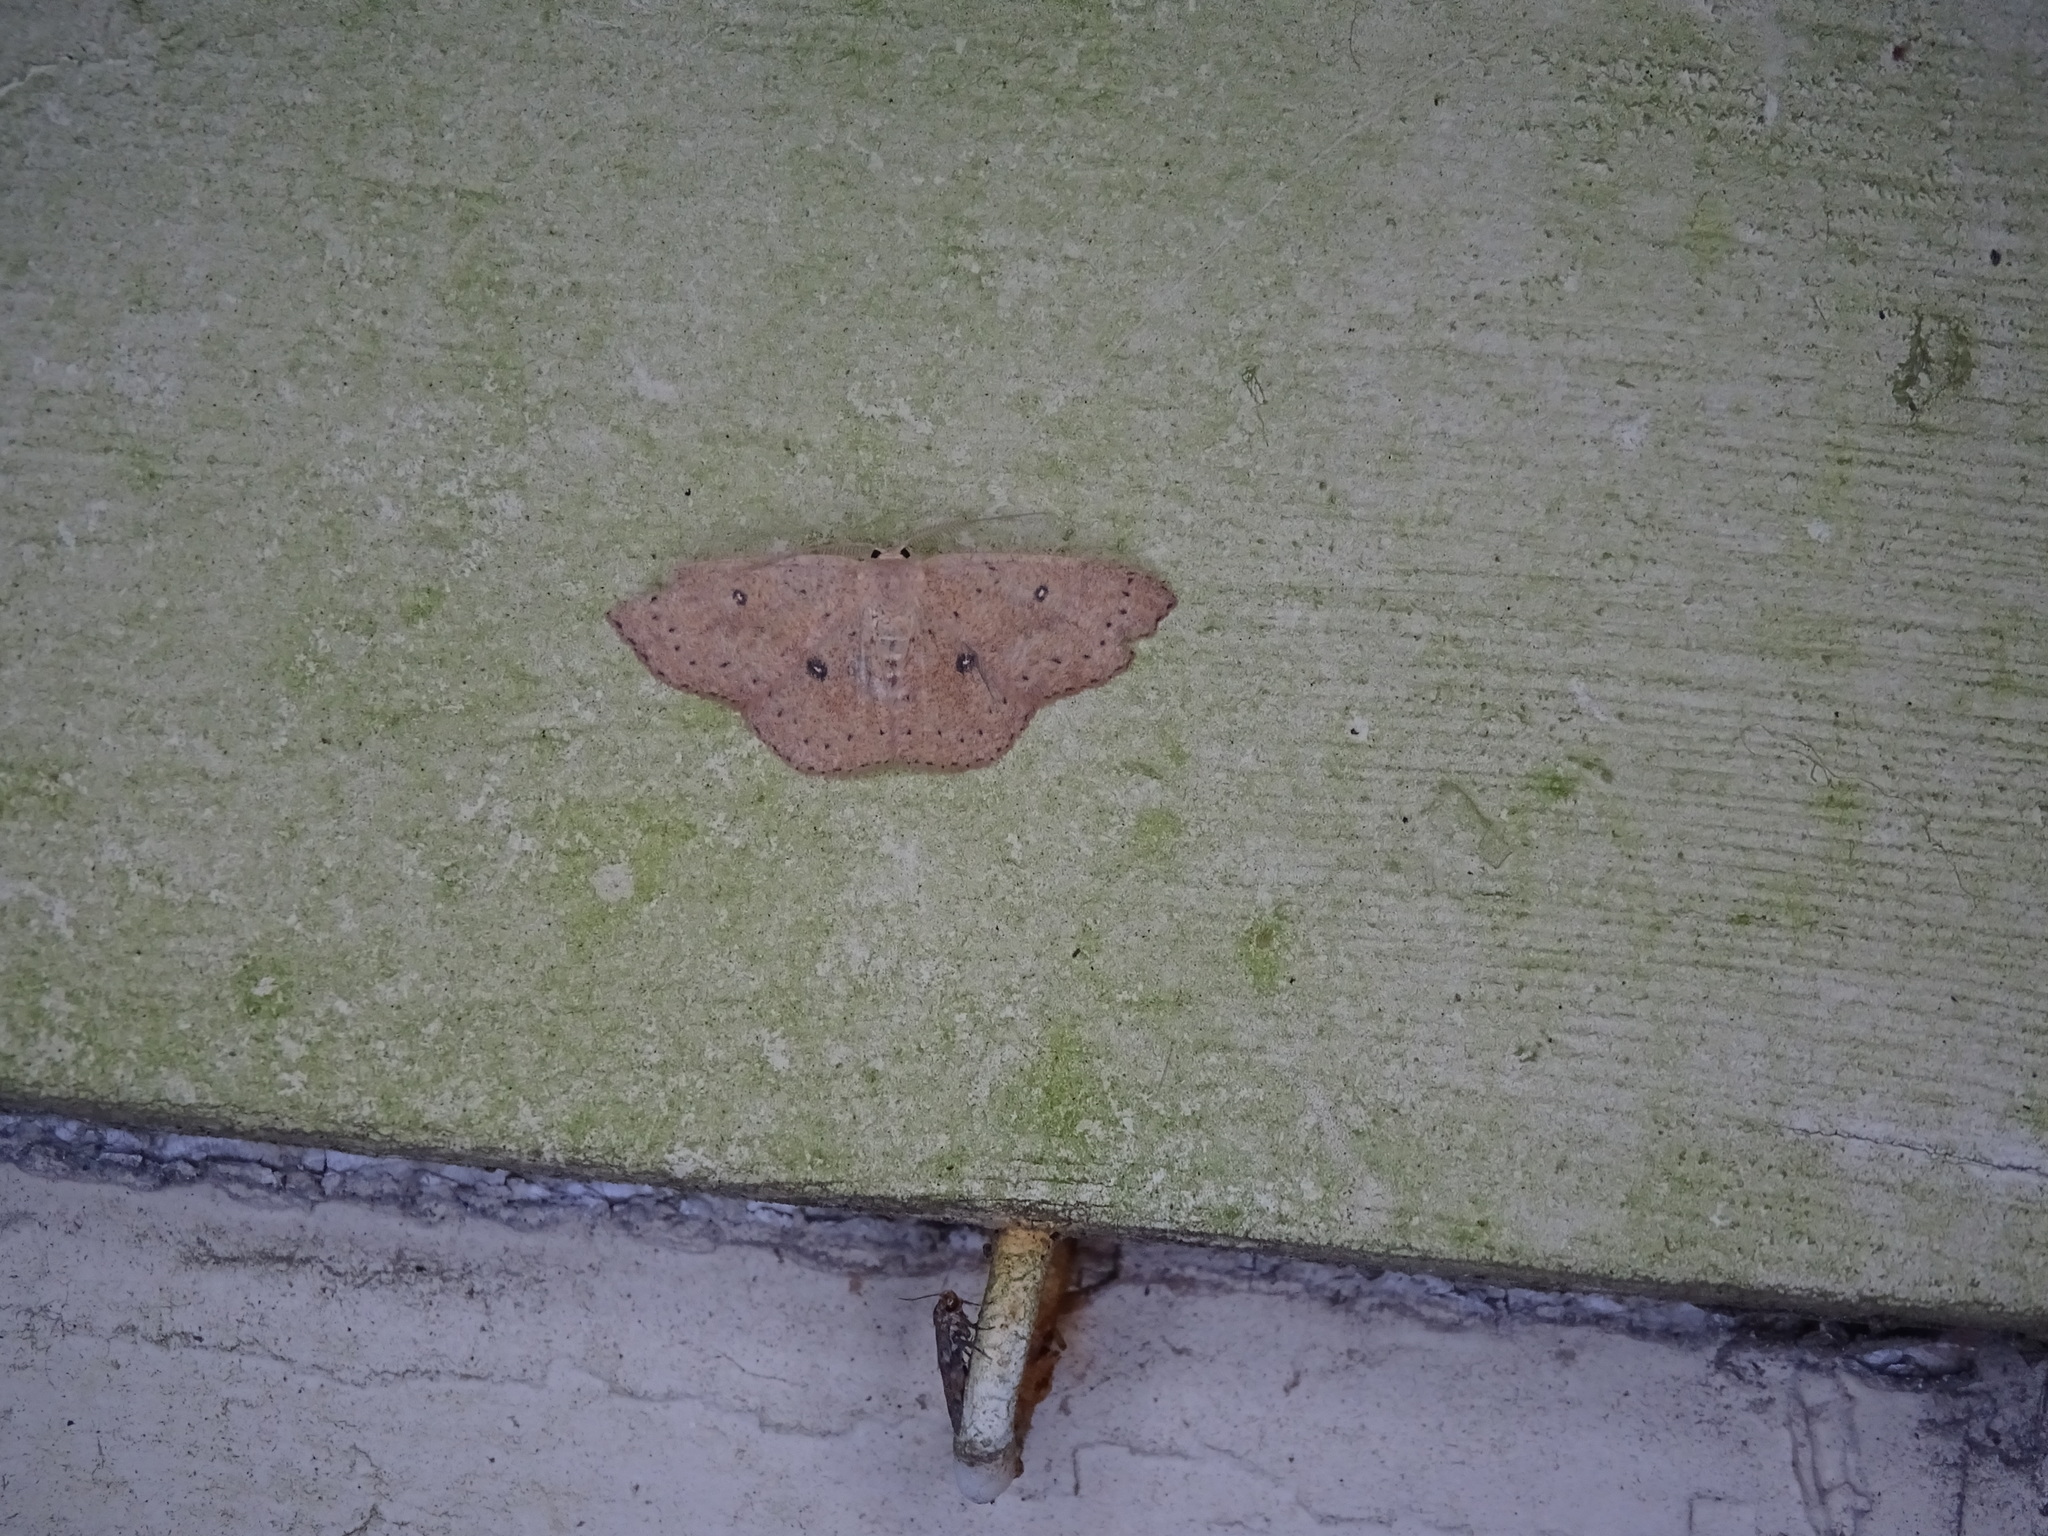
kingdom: Animalia
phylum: Arthropoda
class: Insecta
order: Lepidoptera
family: Geometridae
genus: Cyclophora
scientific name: Cyclophora packardi
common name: Packard's wave
